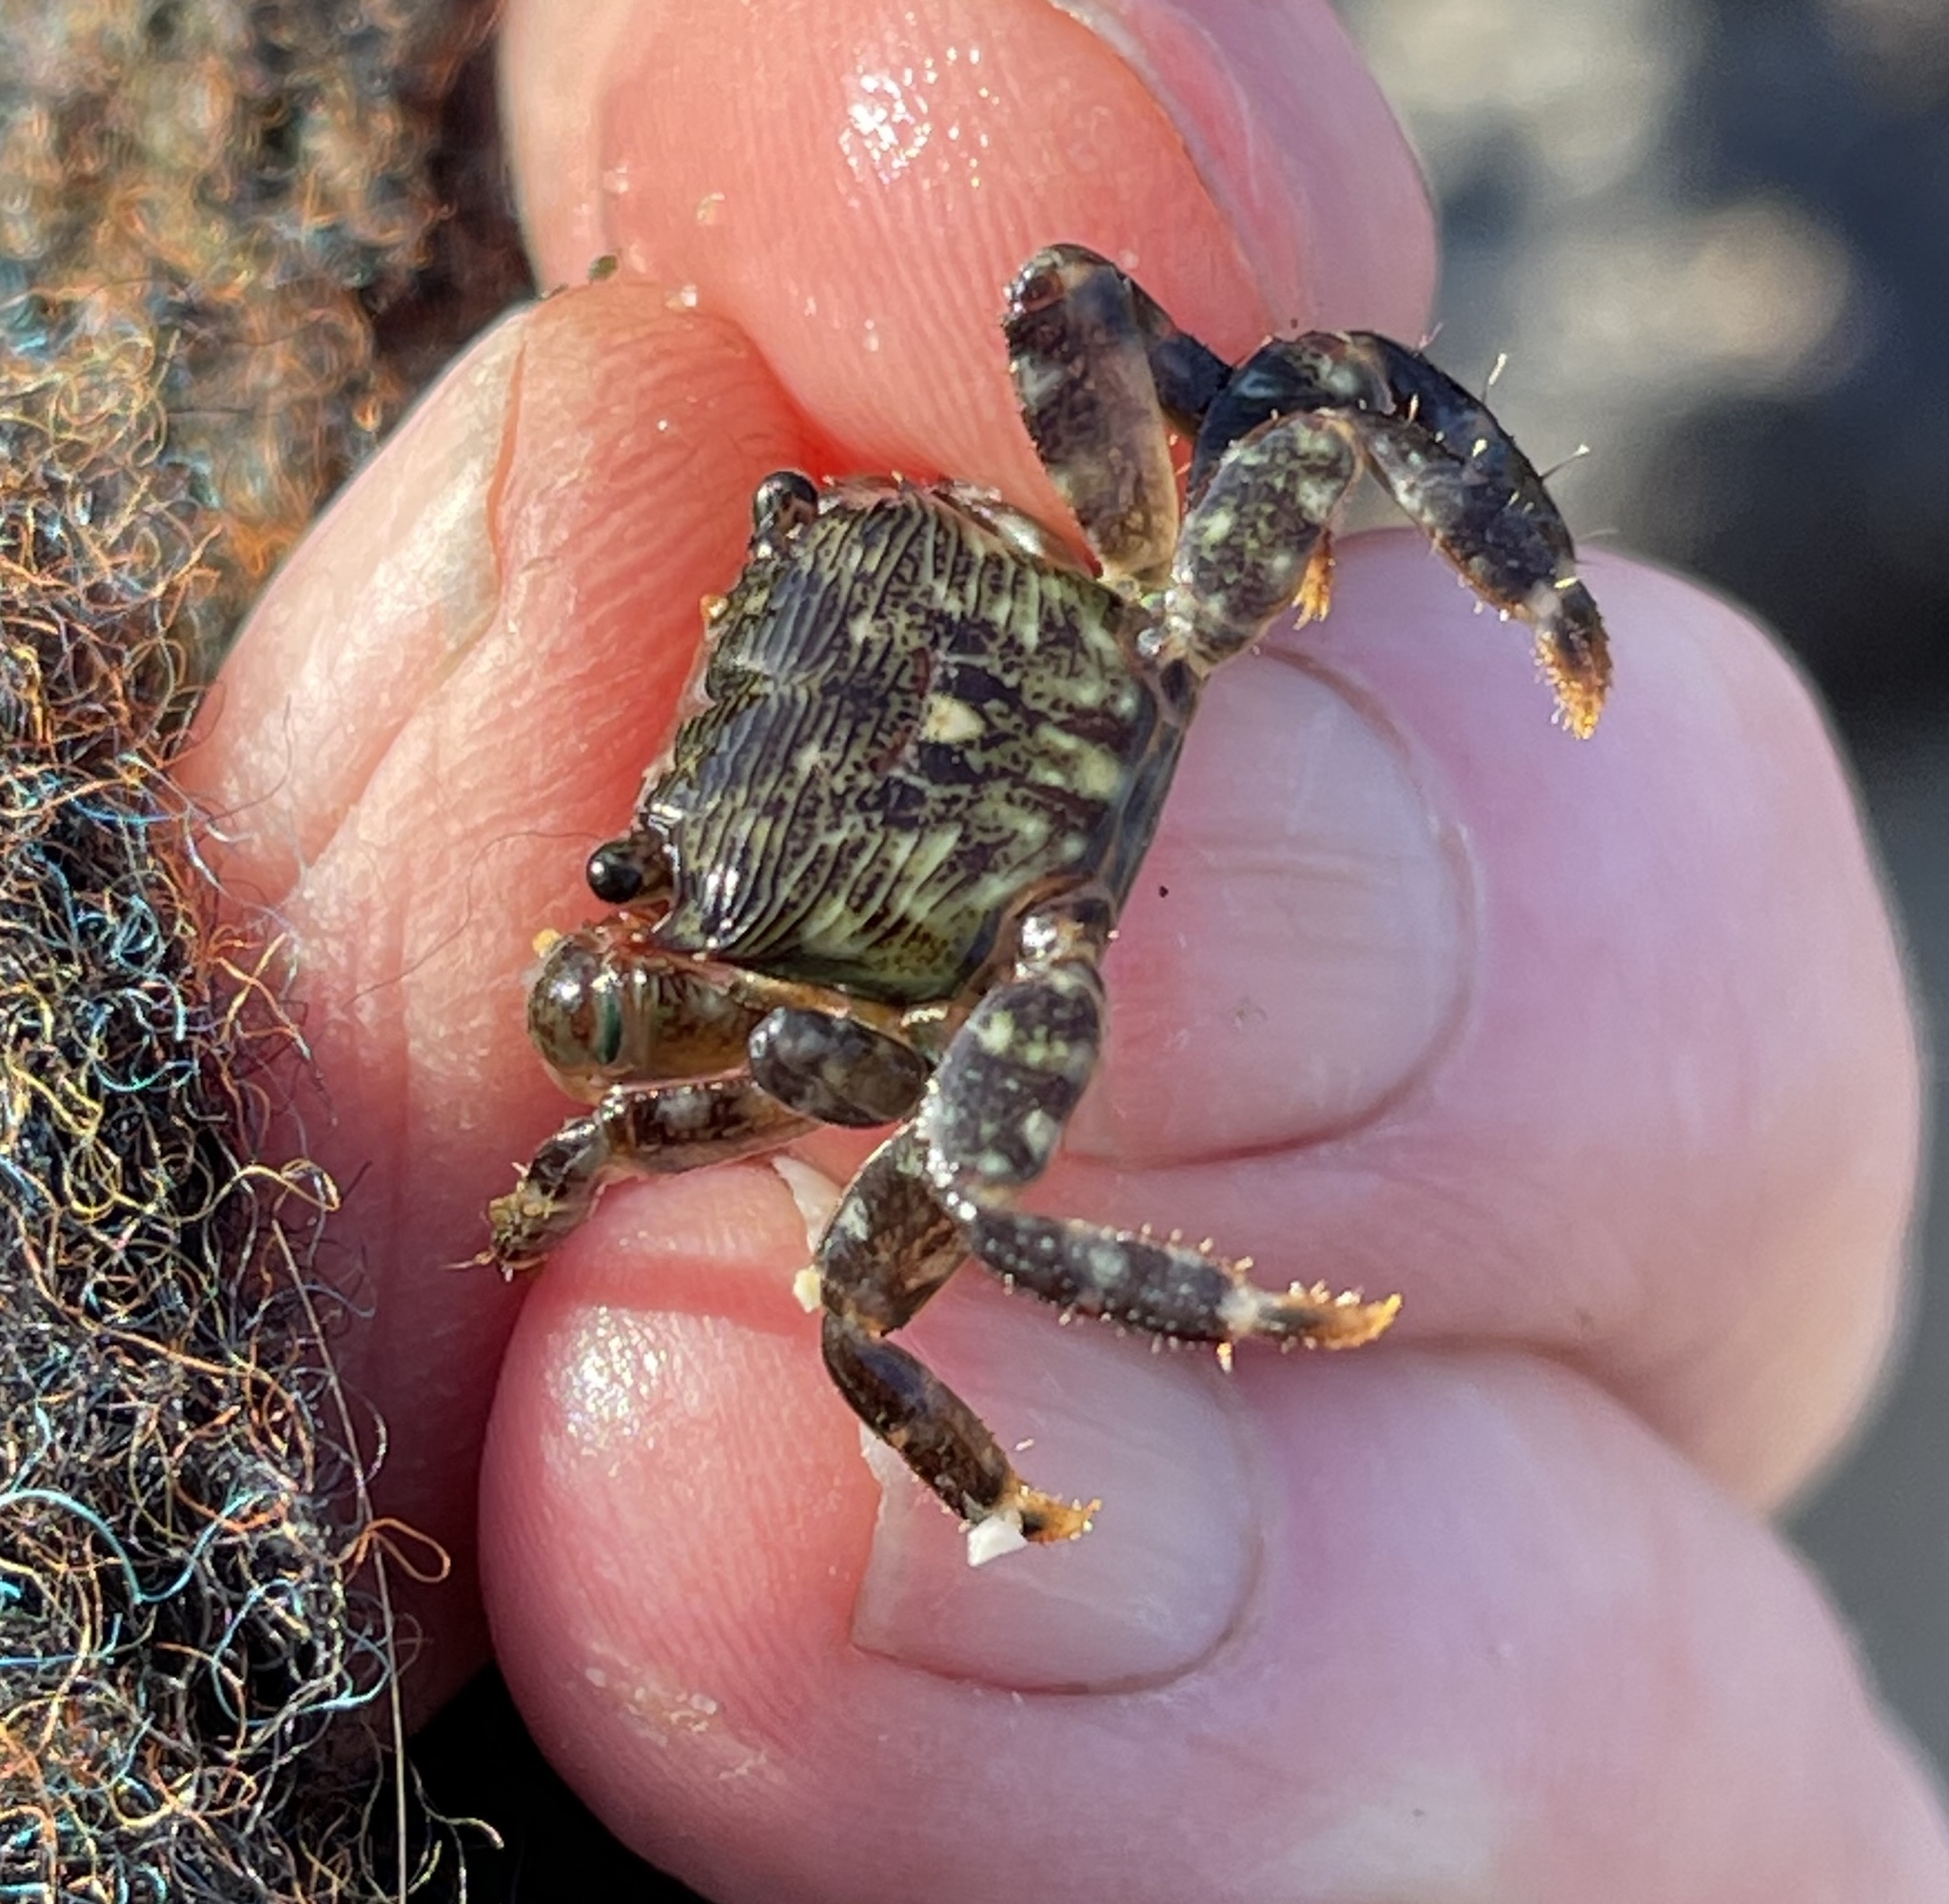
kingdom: Animalia
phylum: Arthropoda
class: Malacostraca
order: Decapoda
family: Grapsidae
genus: Pachygrapsus
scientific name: Pachygrapsus crassipes
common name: Striped shore crab
